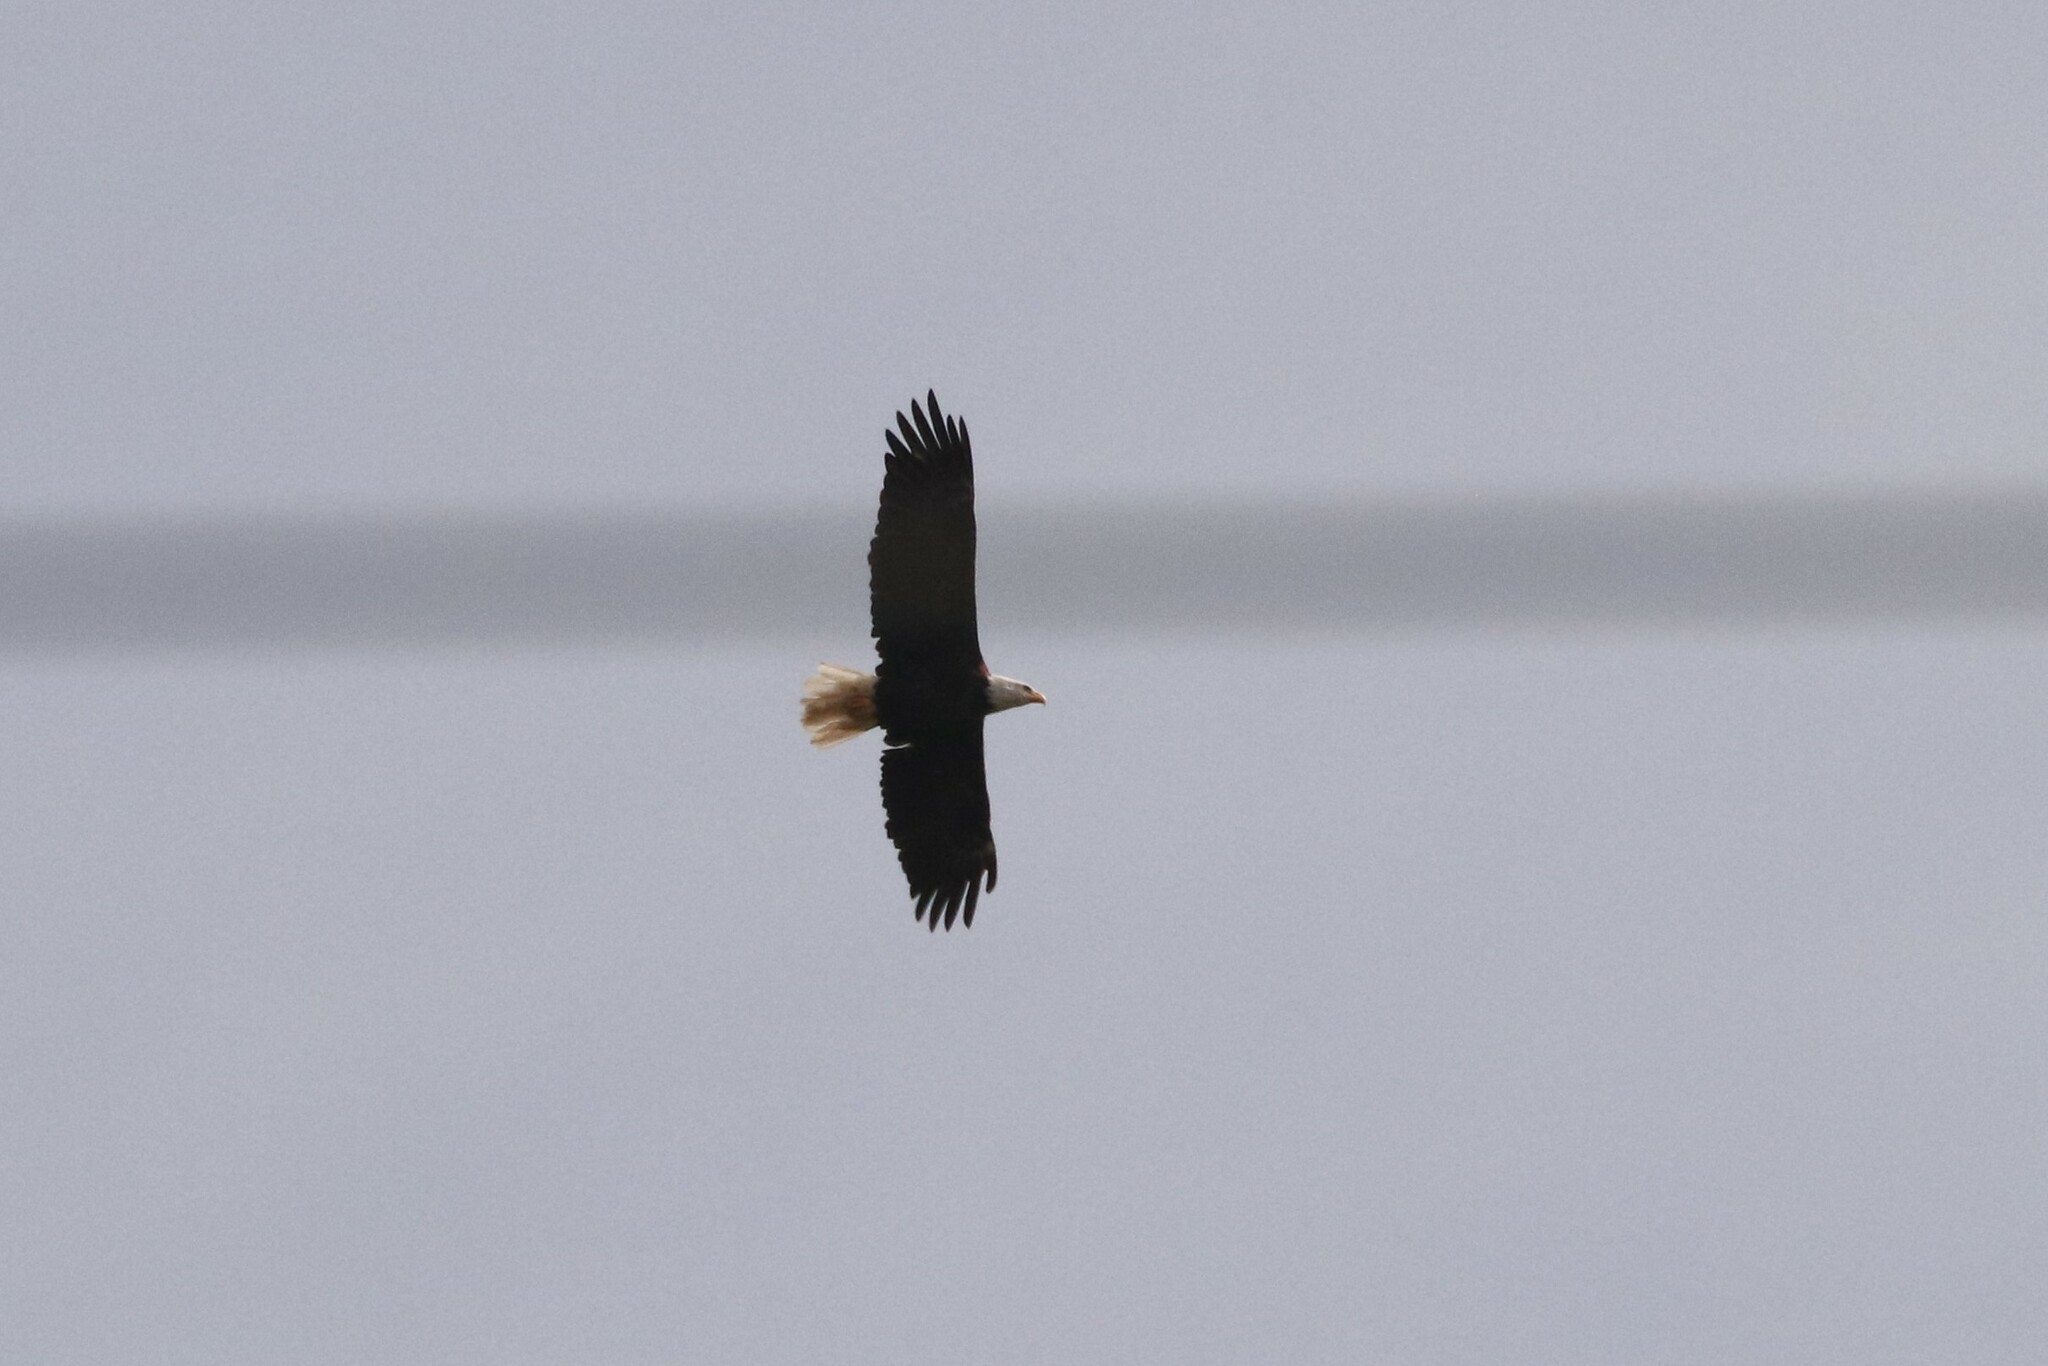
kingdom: Animalia
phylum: Chordata
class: Aves
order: Accipitriformes
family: Accipitridae
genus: Haliaeetus
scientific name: Haliaeetus leucocephalus
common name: Bald eagle
